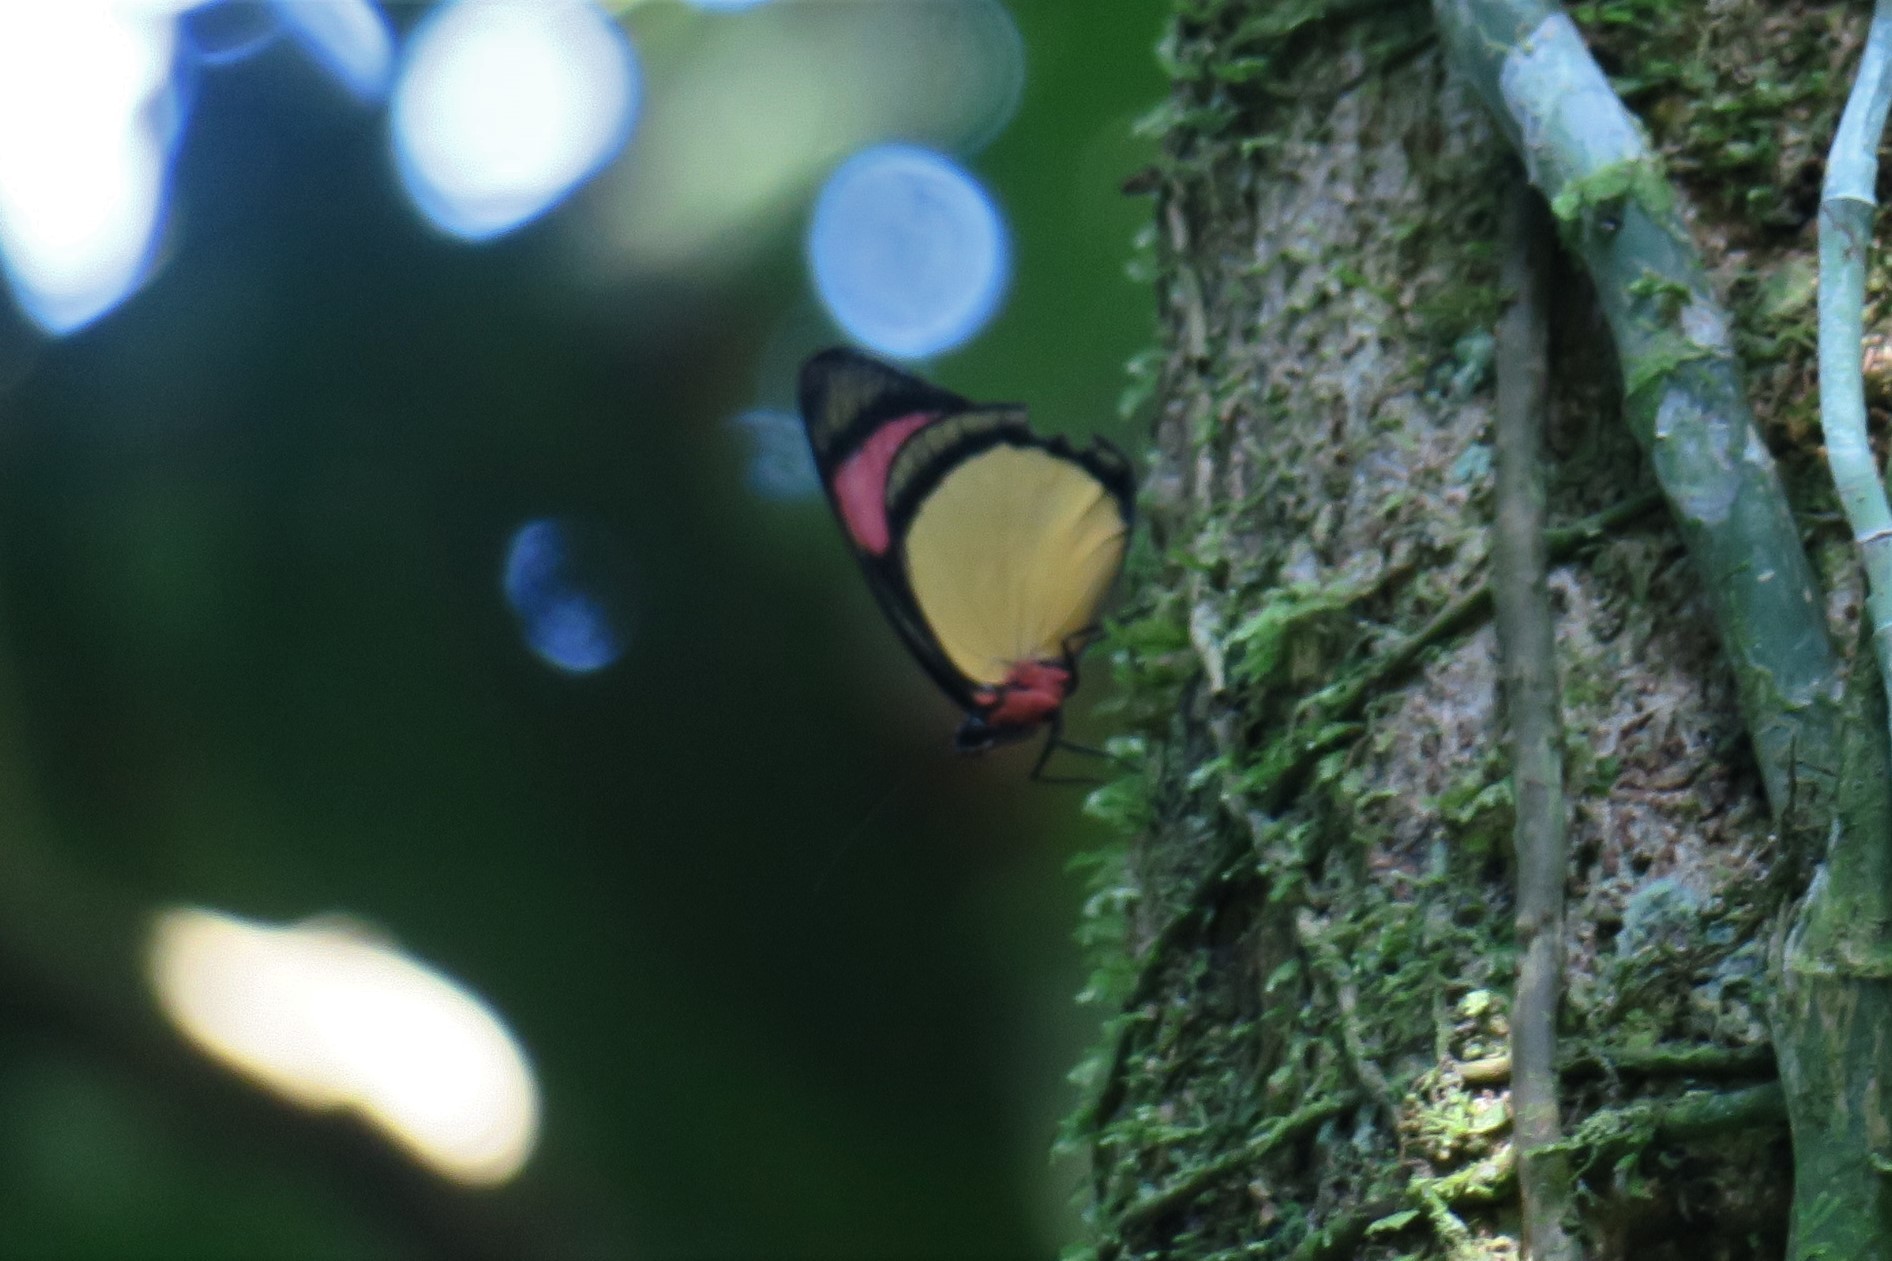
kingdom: Animalia
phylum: Arthropoda
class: Insecta
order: Lepidoptera
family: Nymphalidae
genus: Batesia
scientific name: Batesia hypochlora
